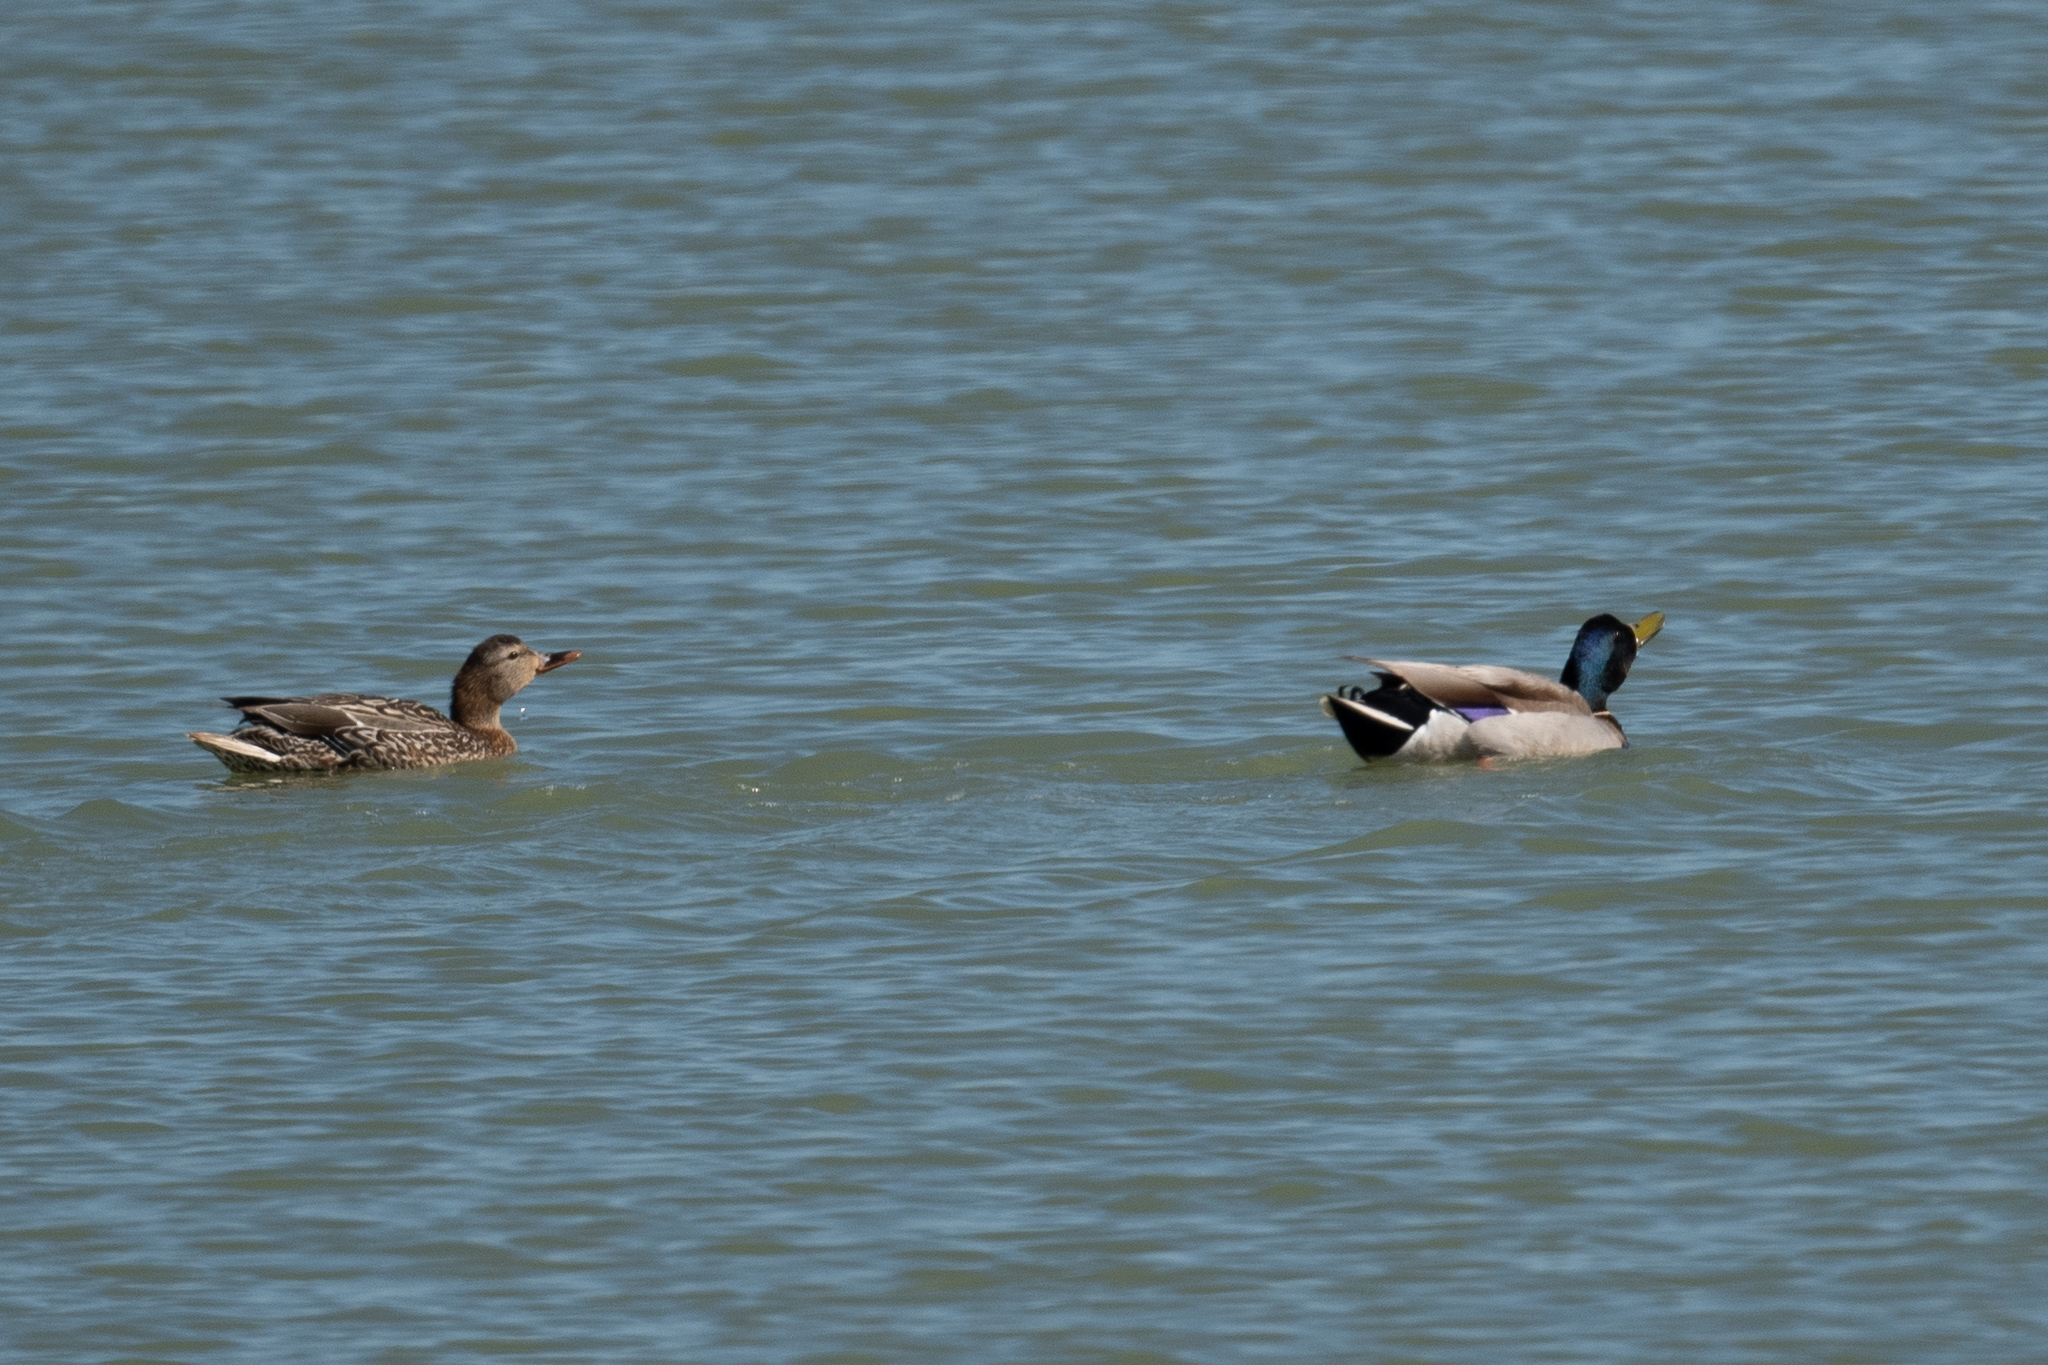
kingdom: Animalia
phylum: Chordata
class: Aves
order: Anseriformes
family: Anatidae
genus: Anas
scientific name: Anas platyrhynchos
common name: Mallard
